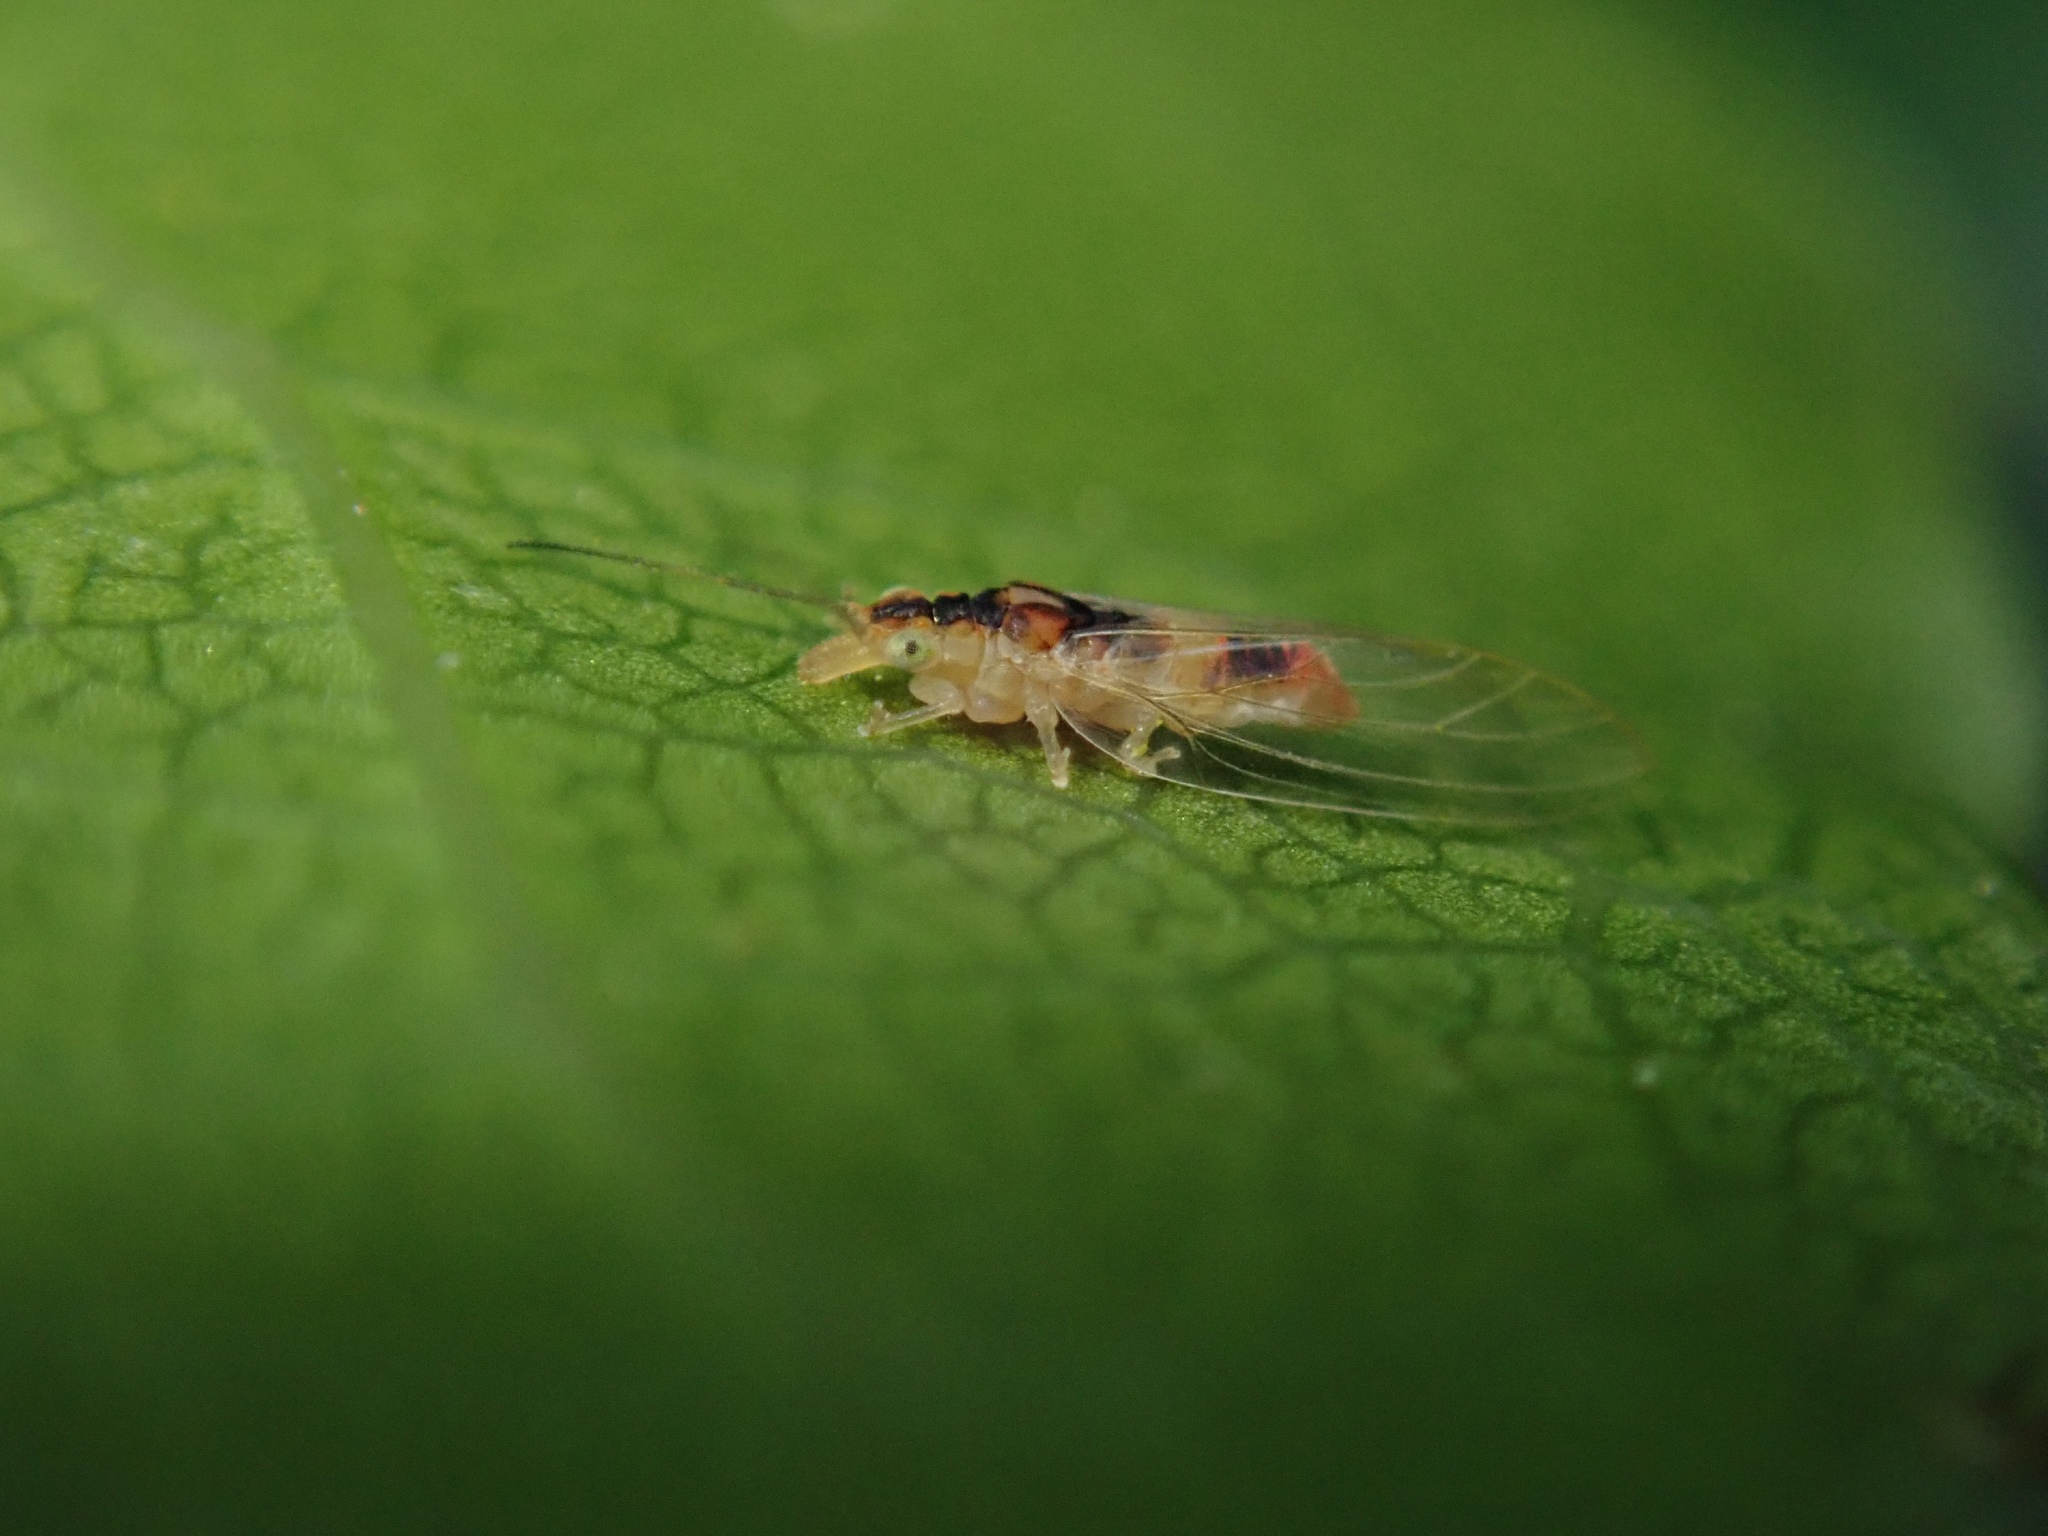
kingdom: Animalia
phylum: Arthropoda
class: Insecta
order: Hemiptera
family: Aphalaridae
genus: Glycaspis
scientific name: Glycaspis granulata
